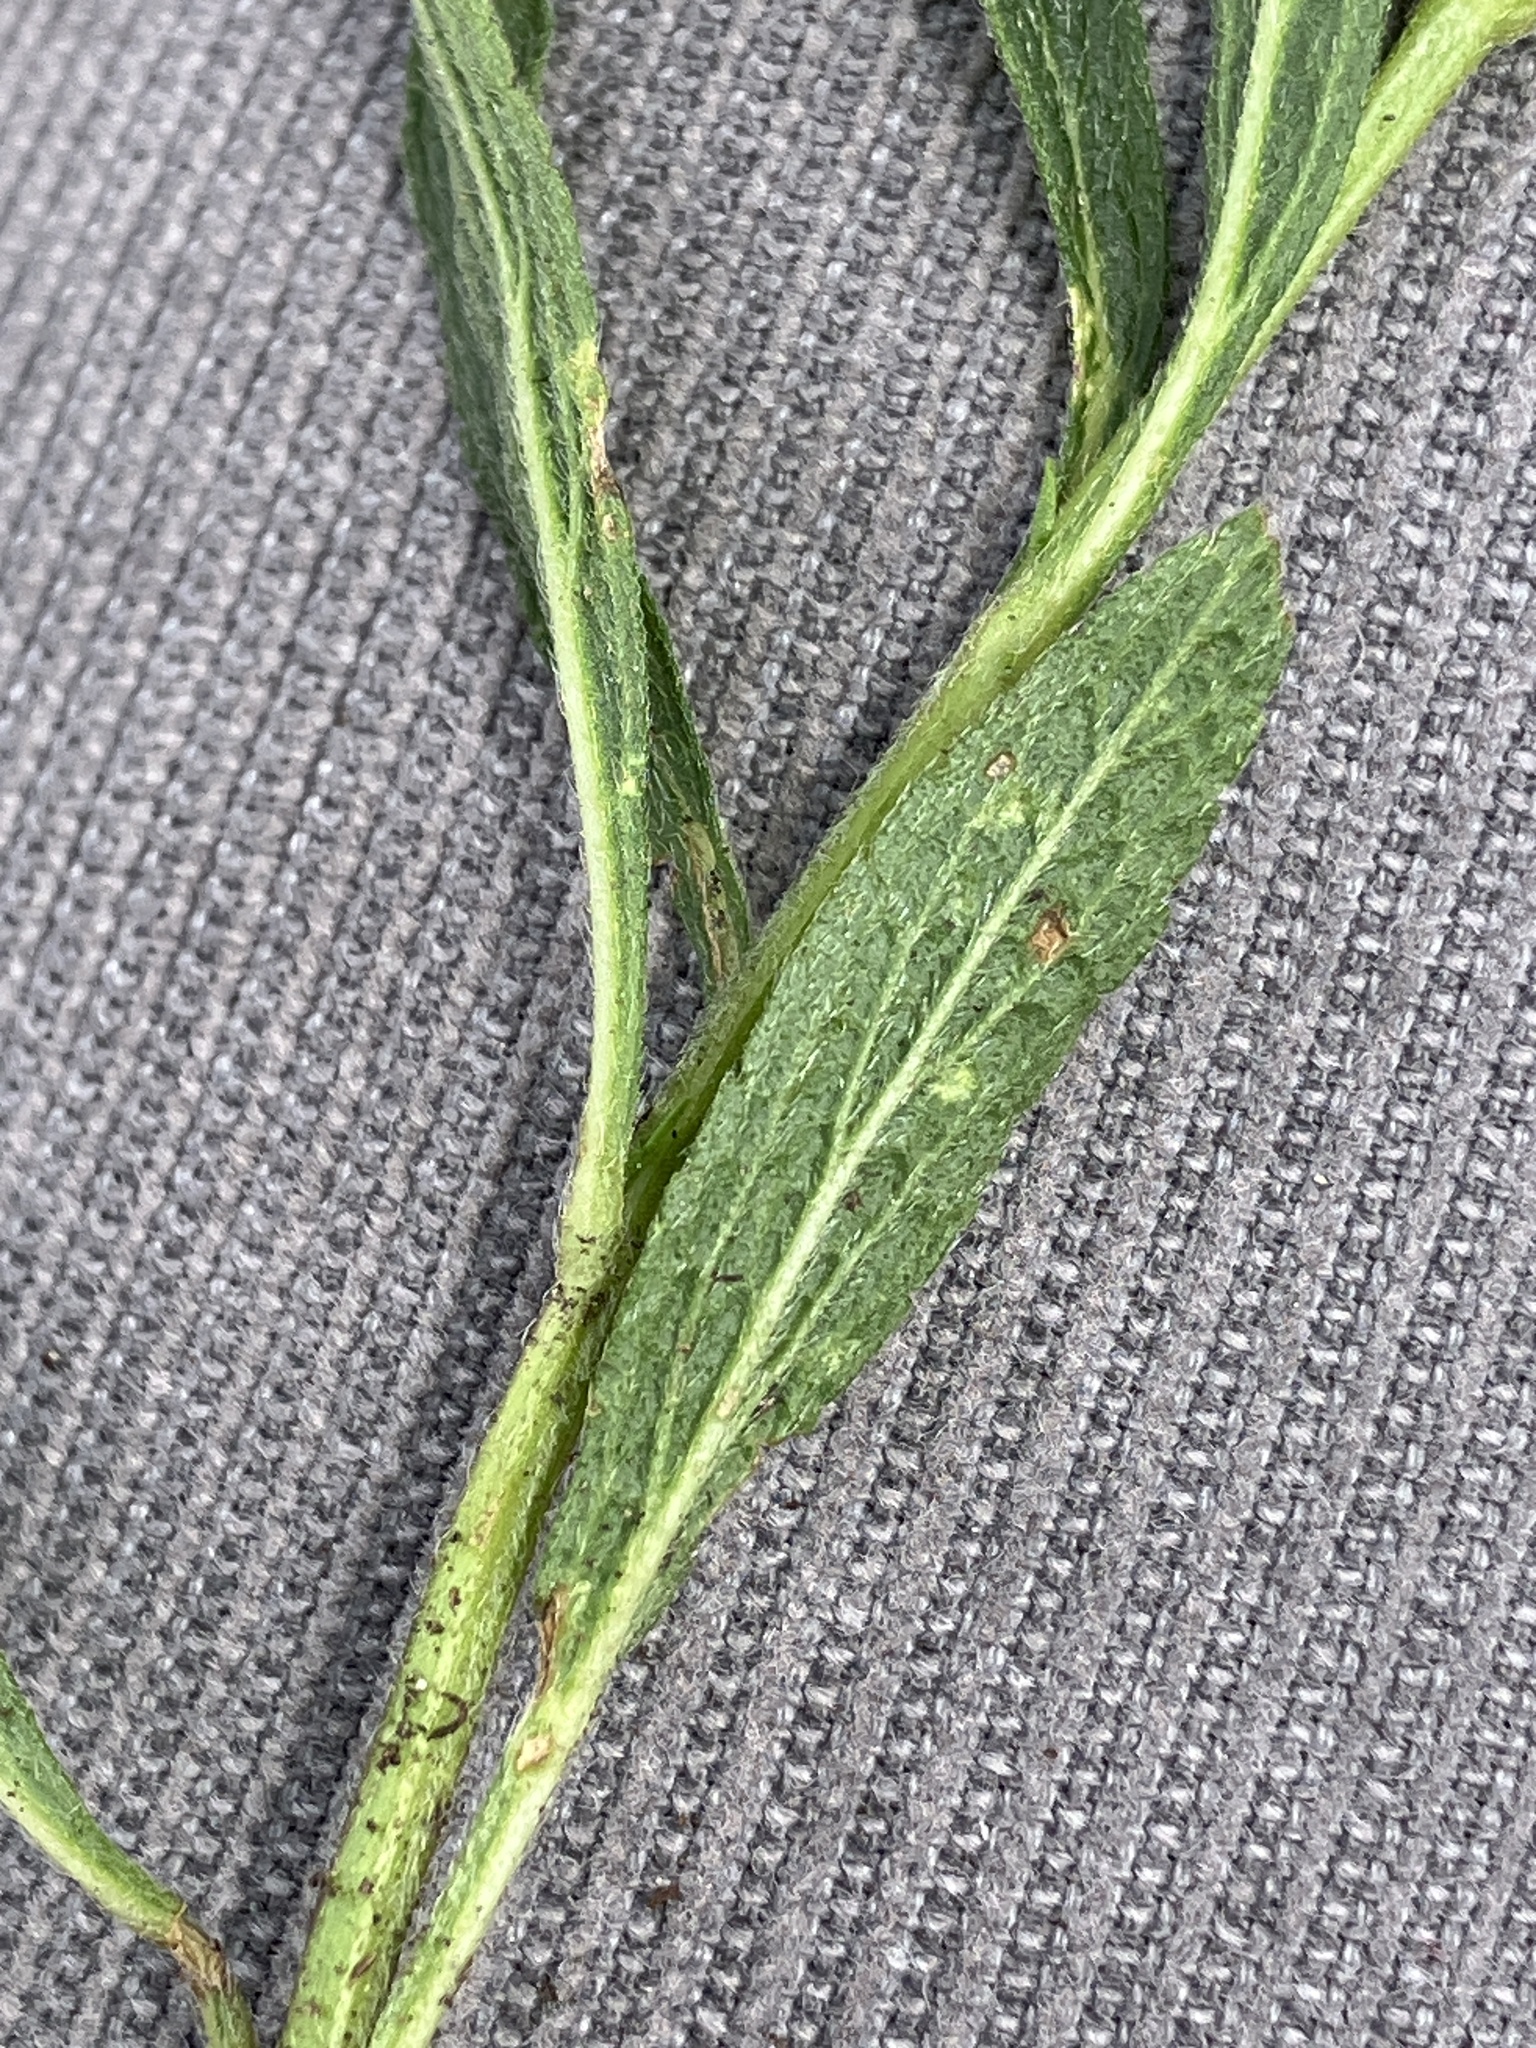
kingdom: Plantae
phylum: Tracheophyta
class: Magnoliopsida
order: Lamiales
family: Lamiaceae
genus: Stachys
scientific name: Stachys recta
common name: Perennial yellow-woundwort
